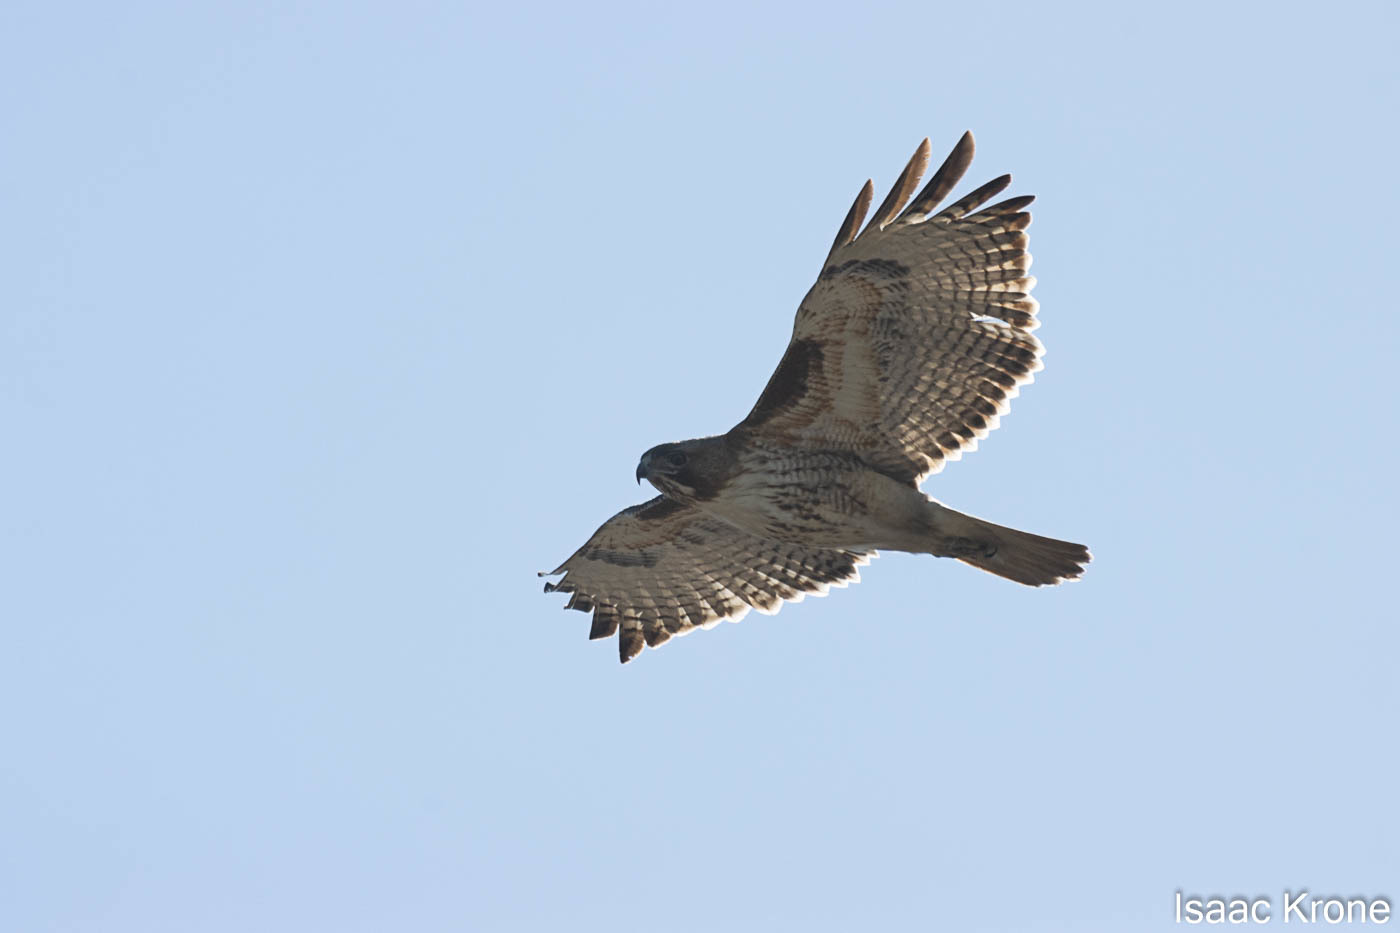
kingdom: Animalia
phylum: Chordata
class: Aves
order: Accipitriformes
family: Accipitridae
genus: Buteo
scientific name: Buteo jamaicensis
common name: Red-tailed hawk
